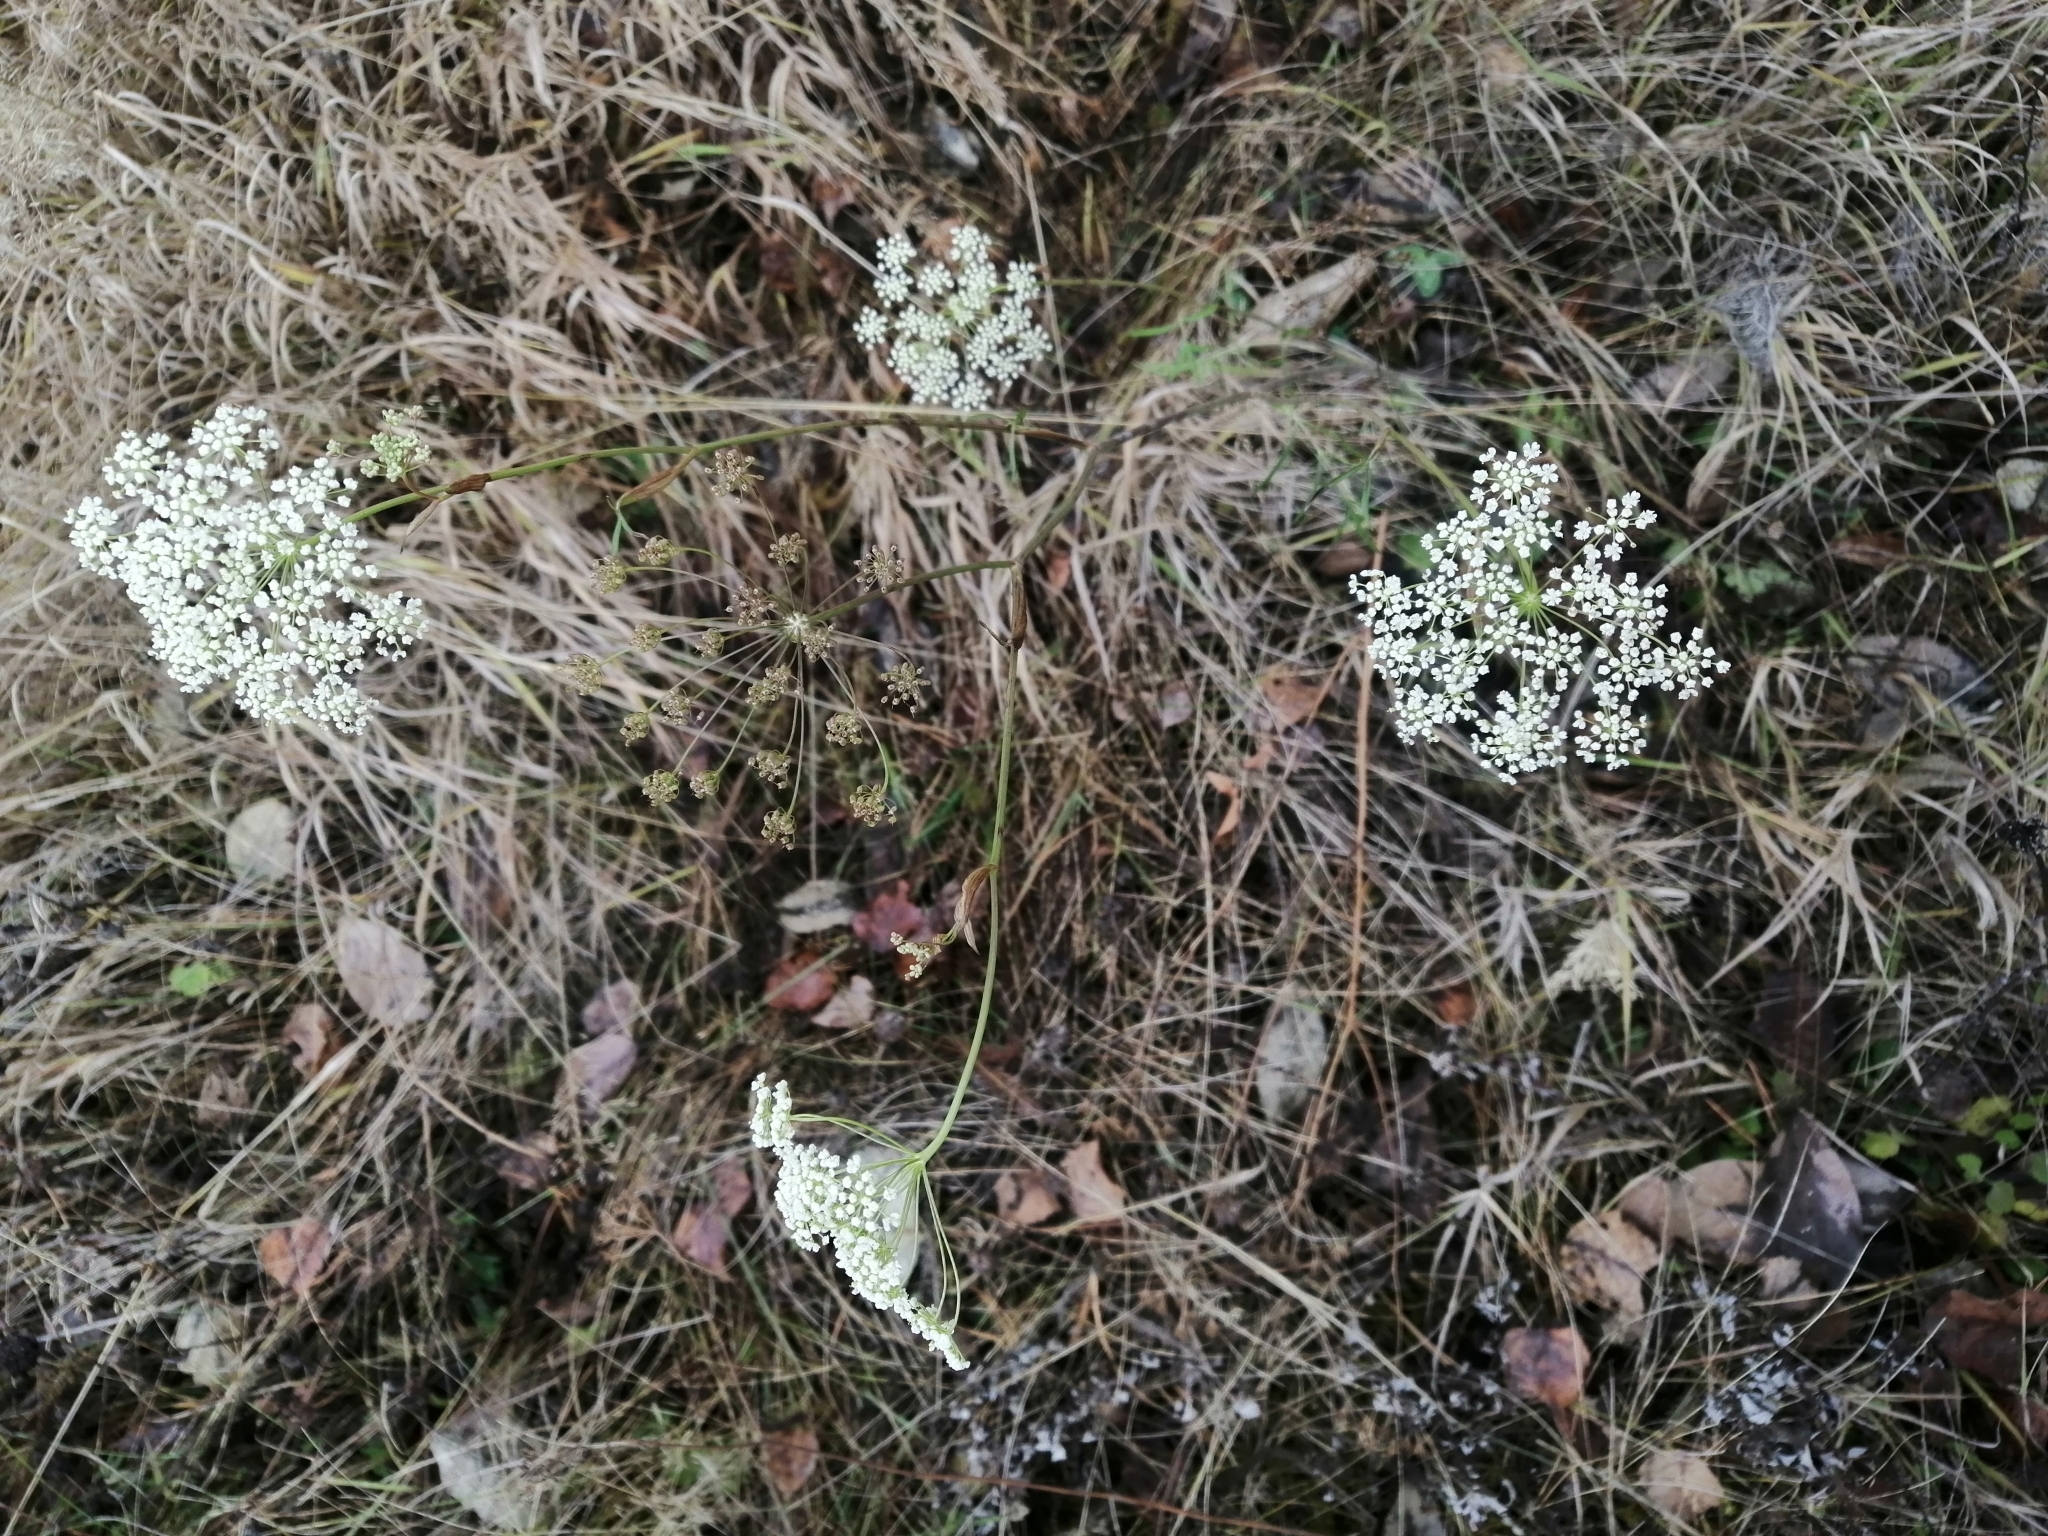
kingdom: Plantae
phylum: Tracheophyta
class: Magnoliopsida
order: Apiales
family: Apiaceae
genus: Pimpinella
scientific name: Pimpinella saxifraga
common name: Burnet-saxifrage
